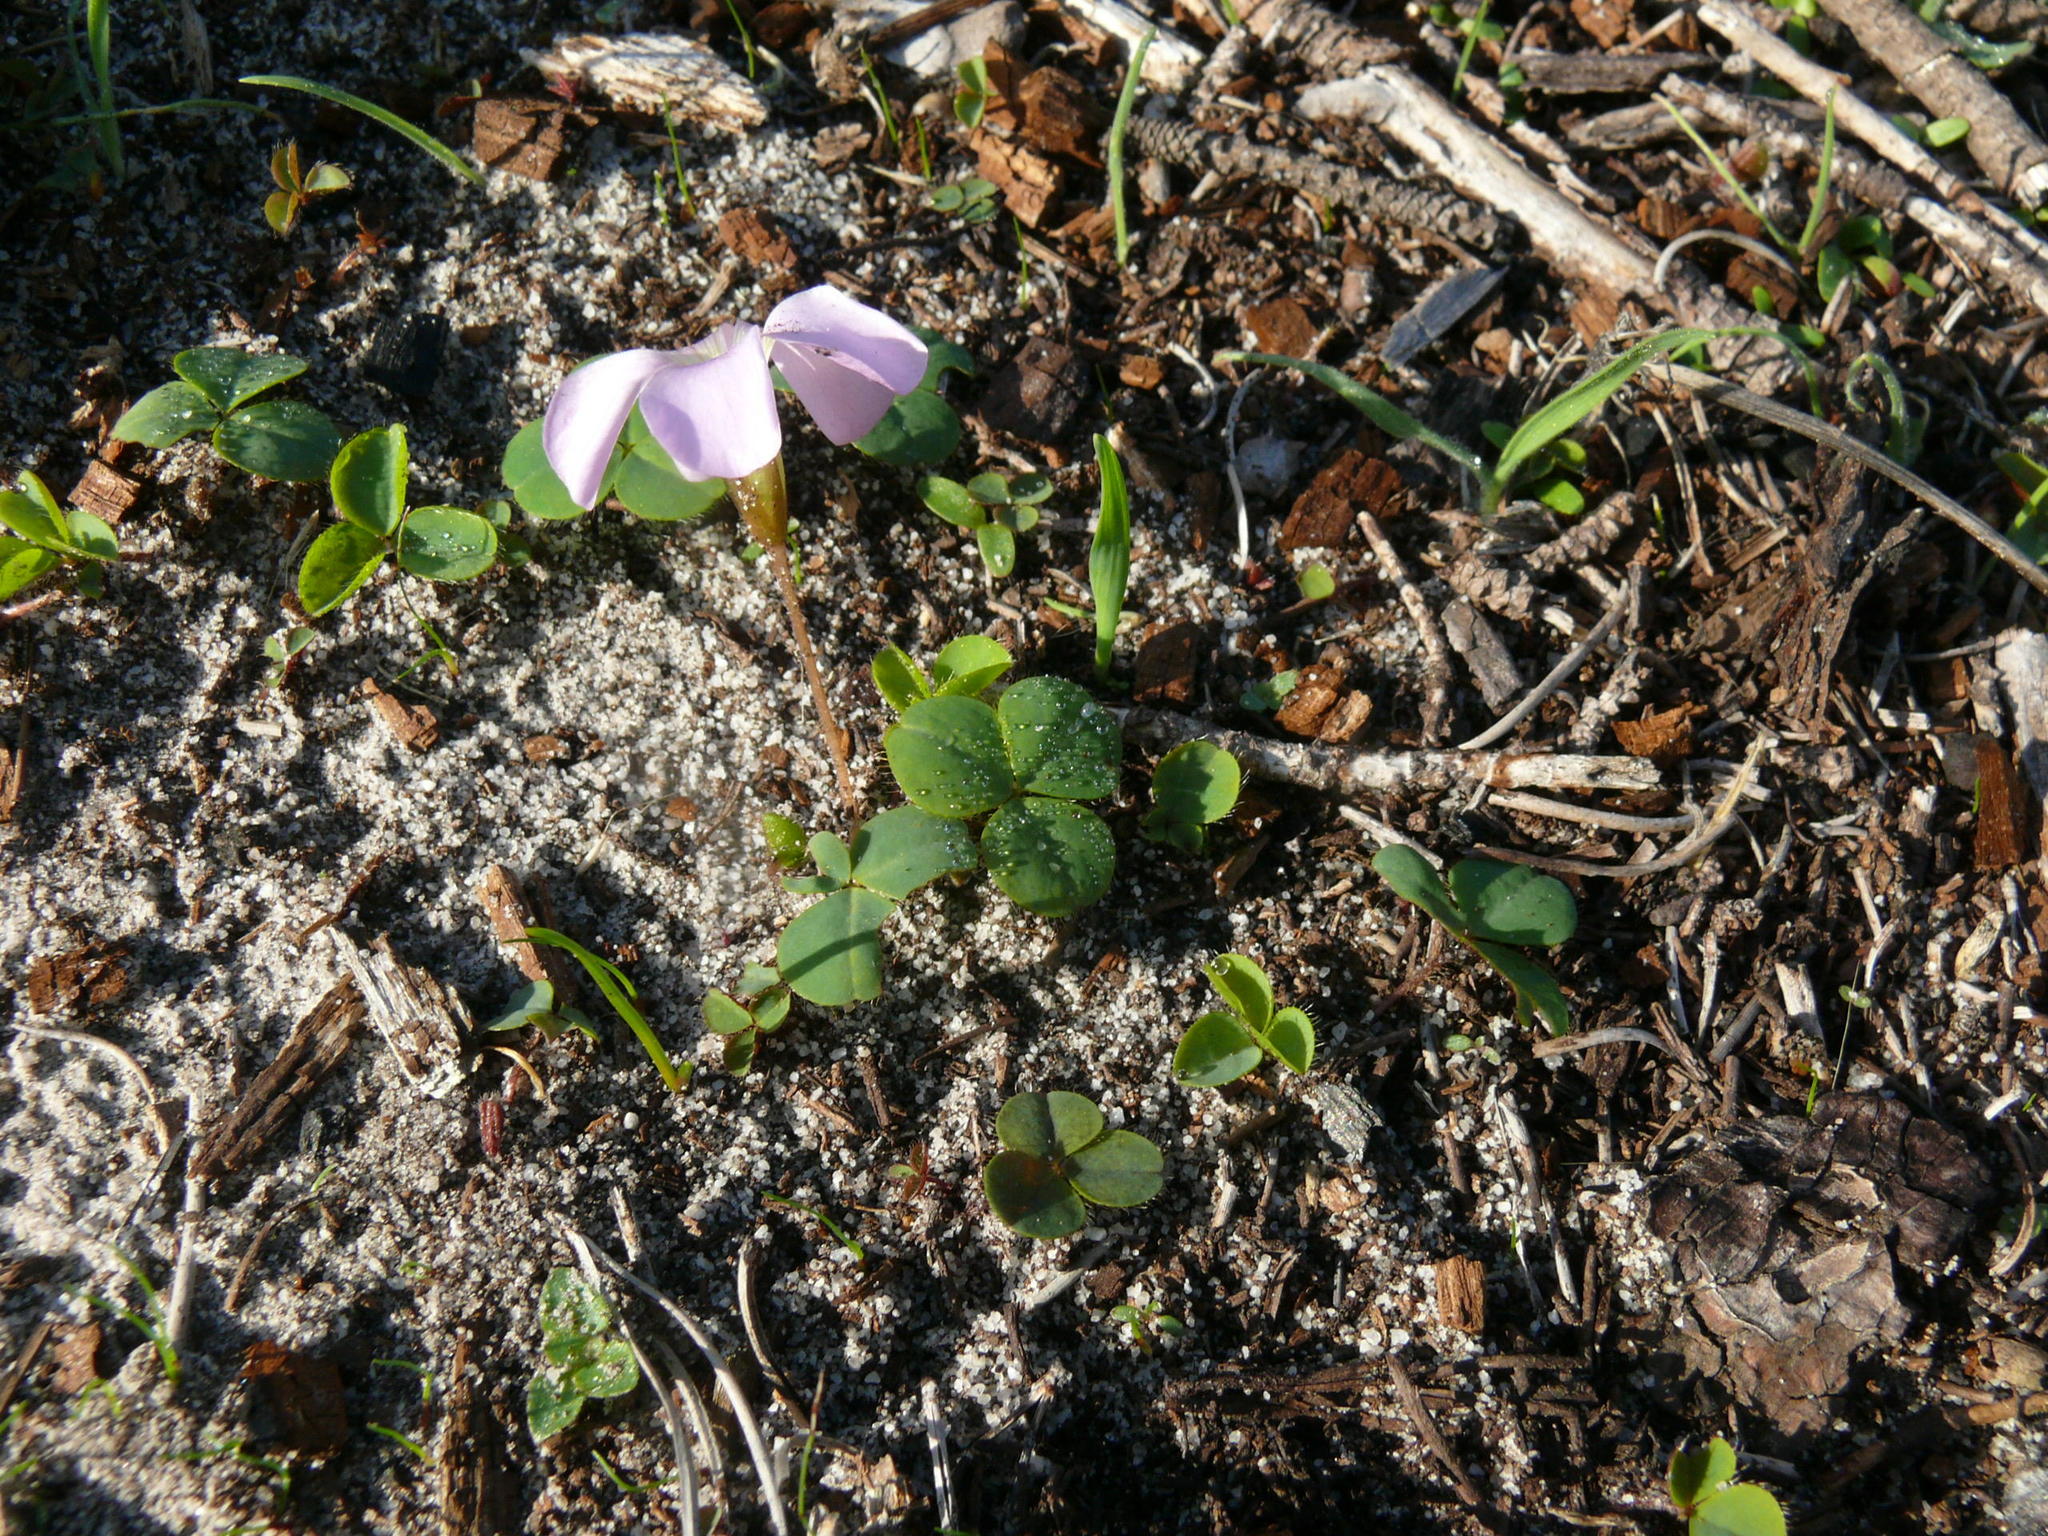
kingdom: Plantae
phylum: Tracheophyta
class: Magnoliopsida
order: Oxalidales
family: Oxalidaceae
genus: Oxalis
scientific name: Oxalis nidulans
